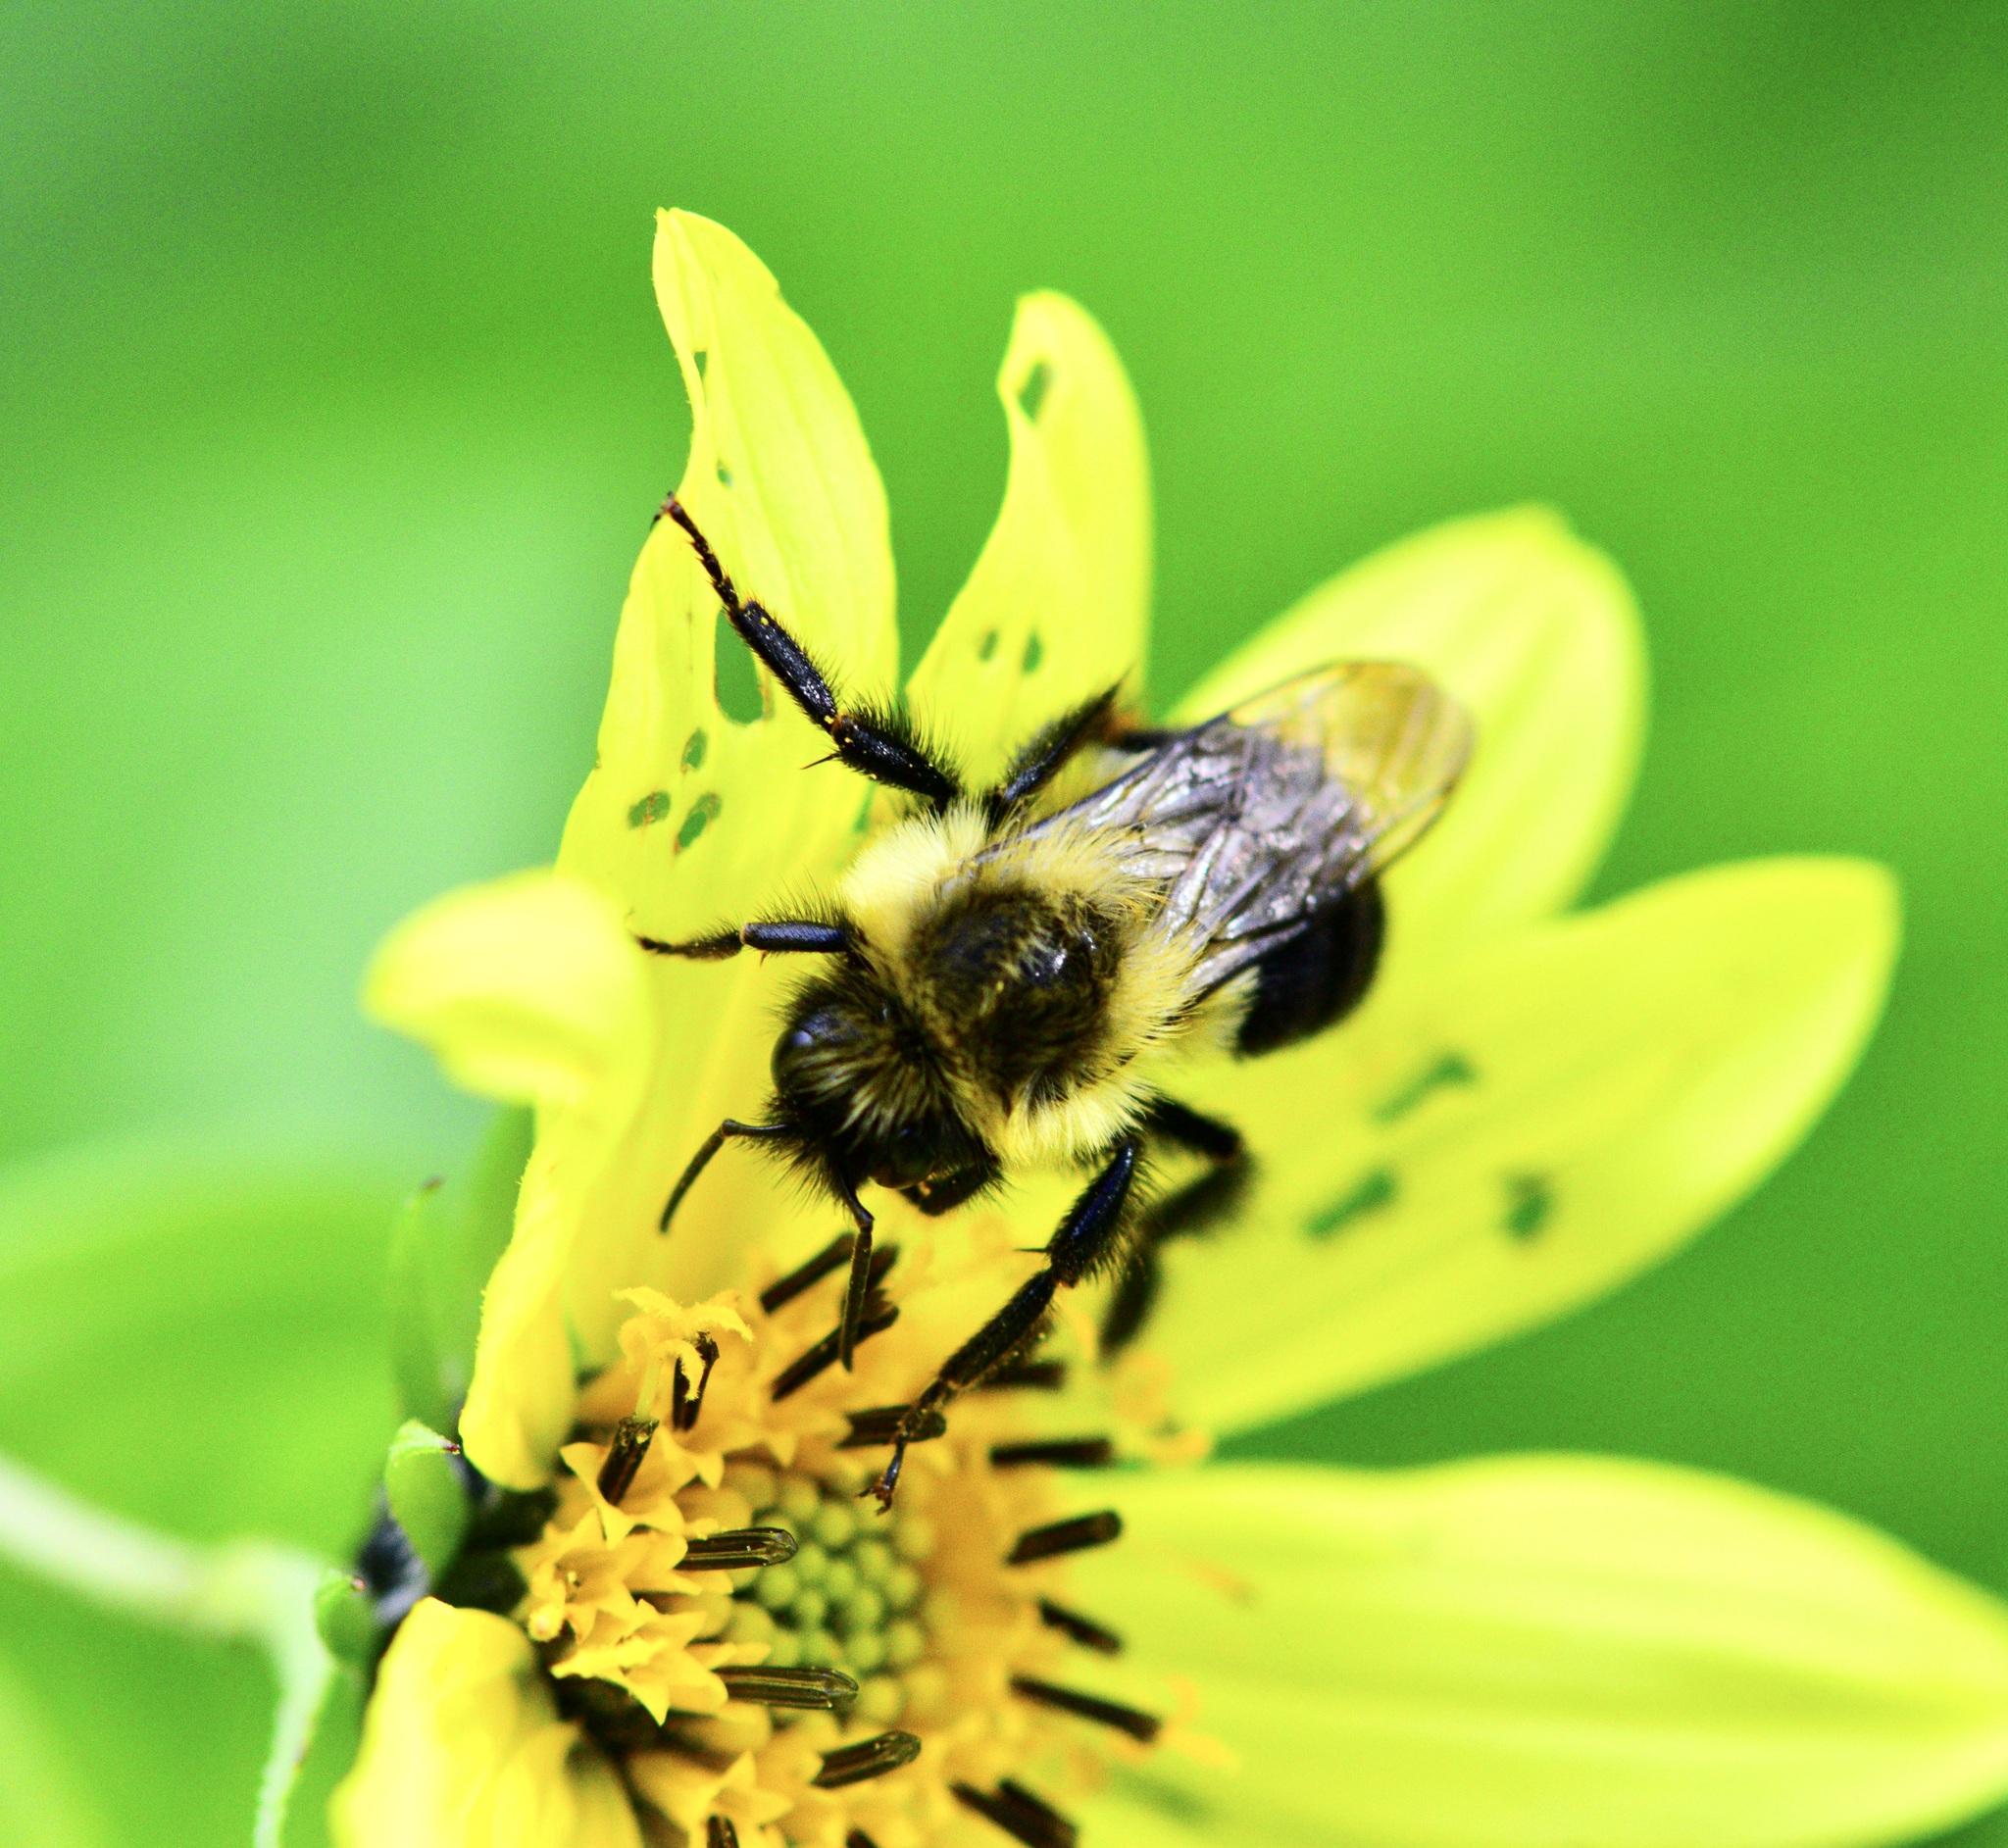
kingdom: Animalia
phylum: Arthropoda
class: Insecta
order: Hymenoptera
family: Apidae
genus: Bombus
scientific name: Bombus impatiens
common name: Common eastern bumble bee
